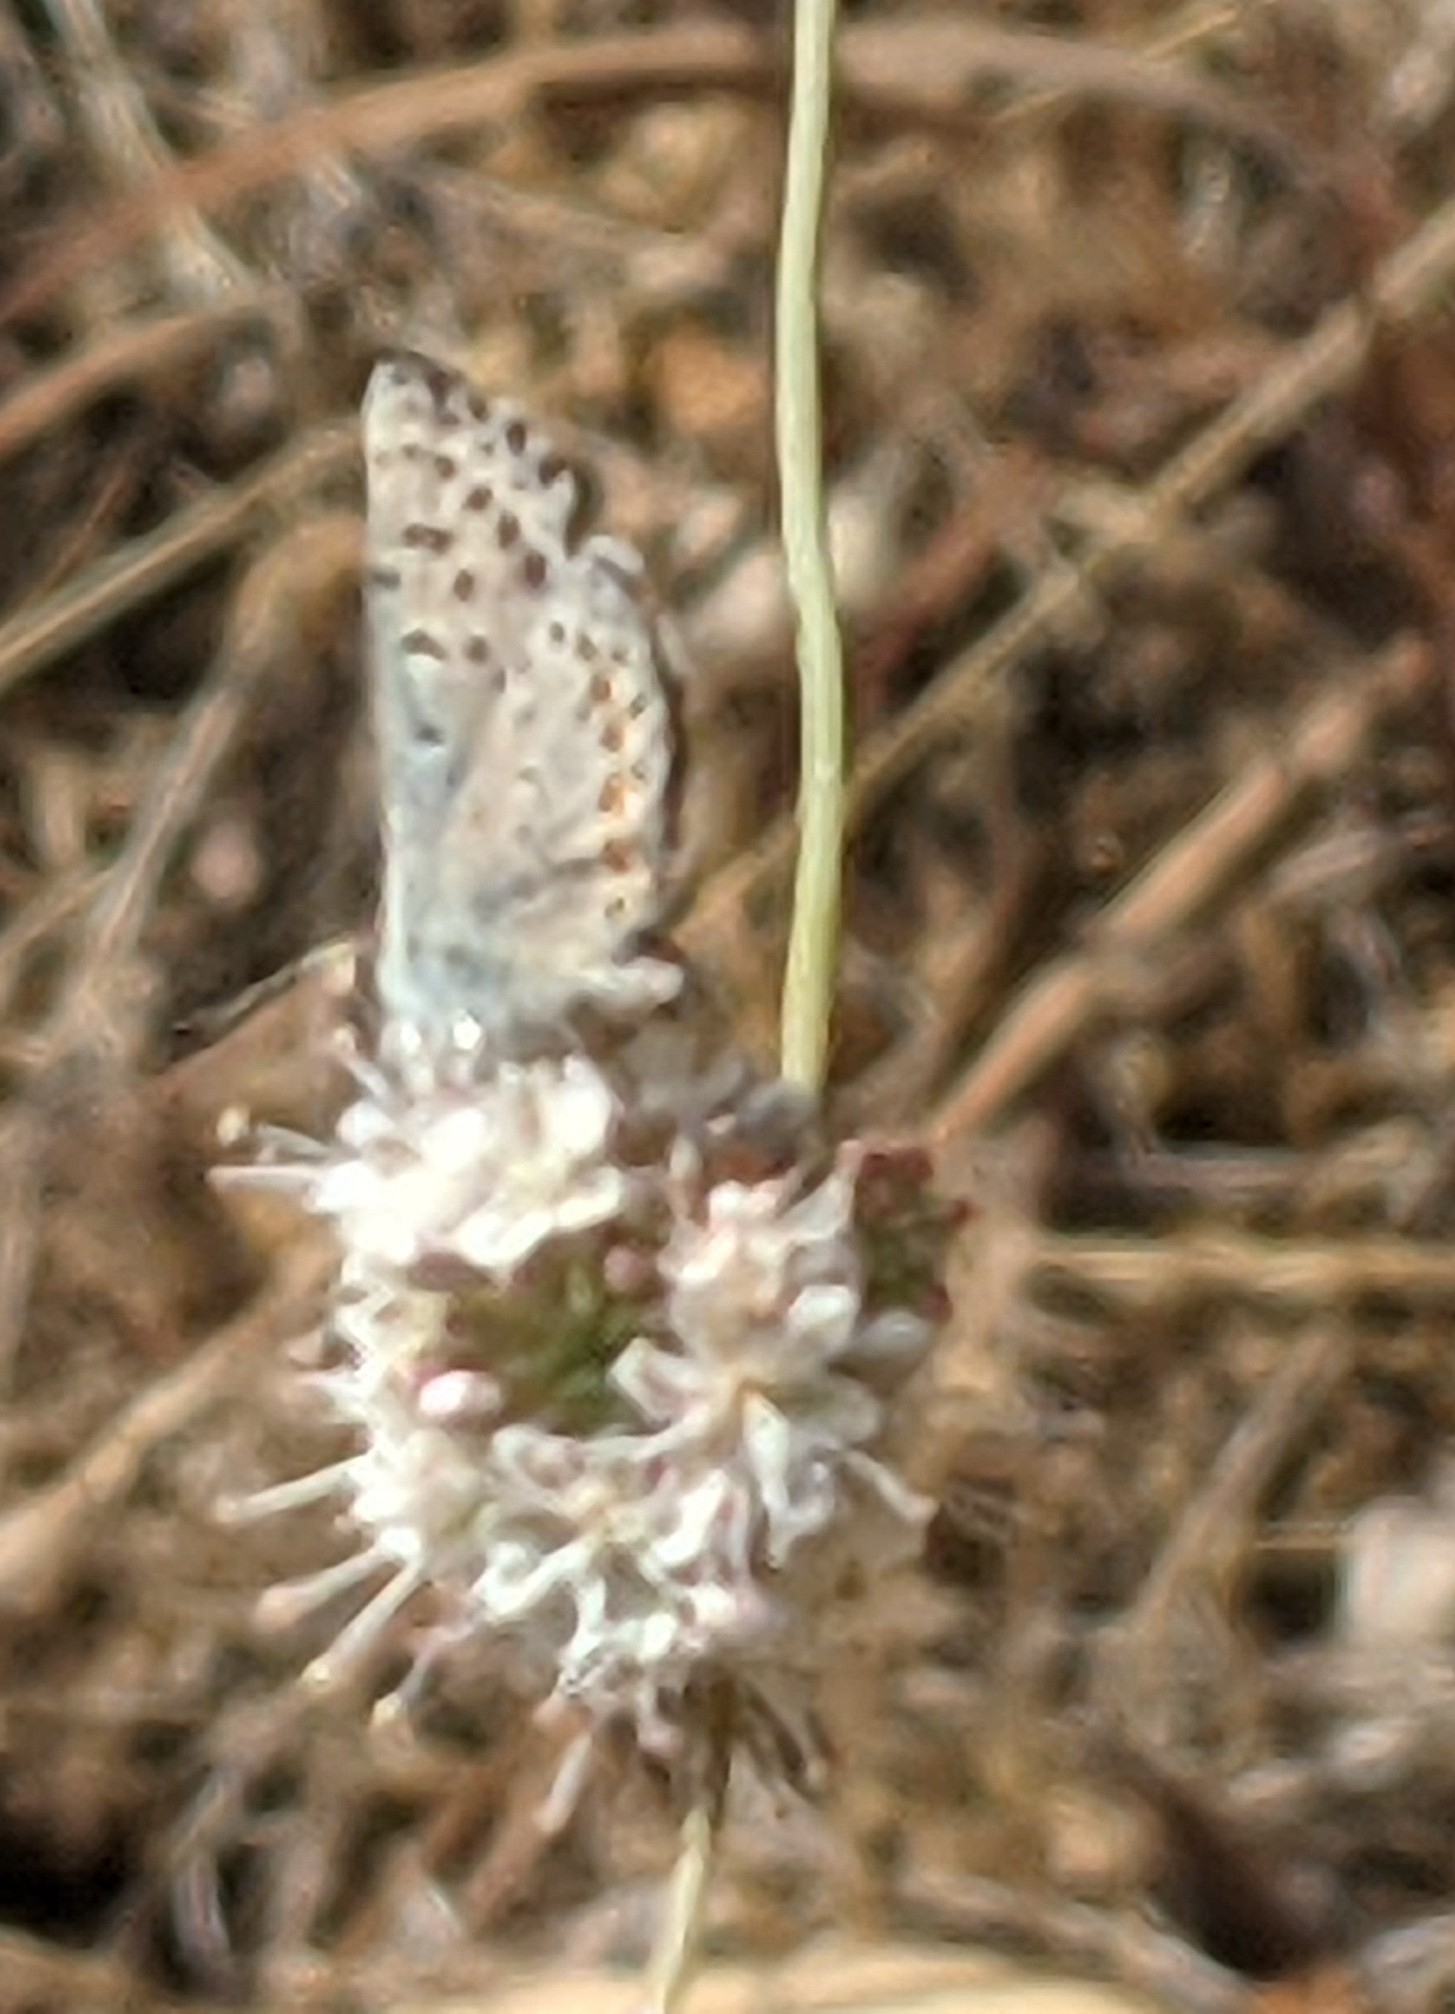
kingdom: Animalia
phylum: Arthropoda
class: Insecta
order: Lepidoptera
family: Lycaenidae
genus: Euphilotes
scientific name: Euphilotes enoptes
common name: Dotted blue
